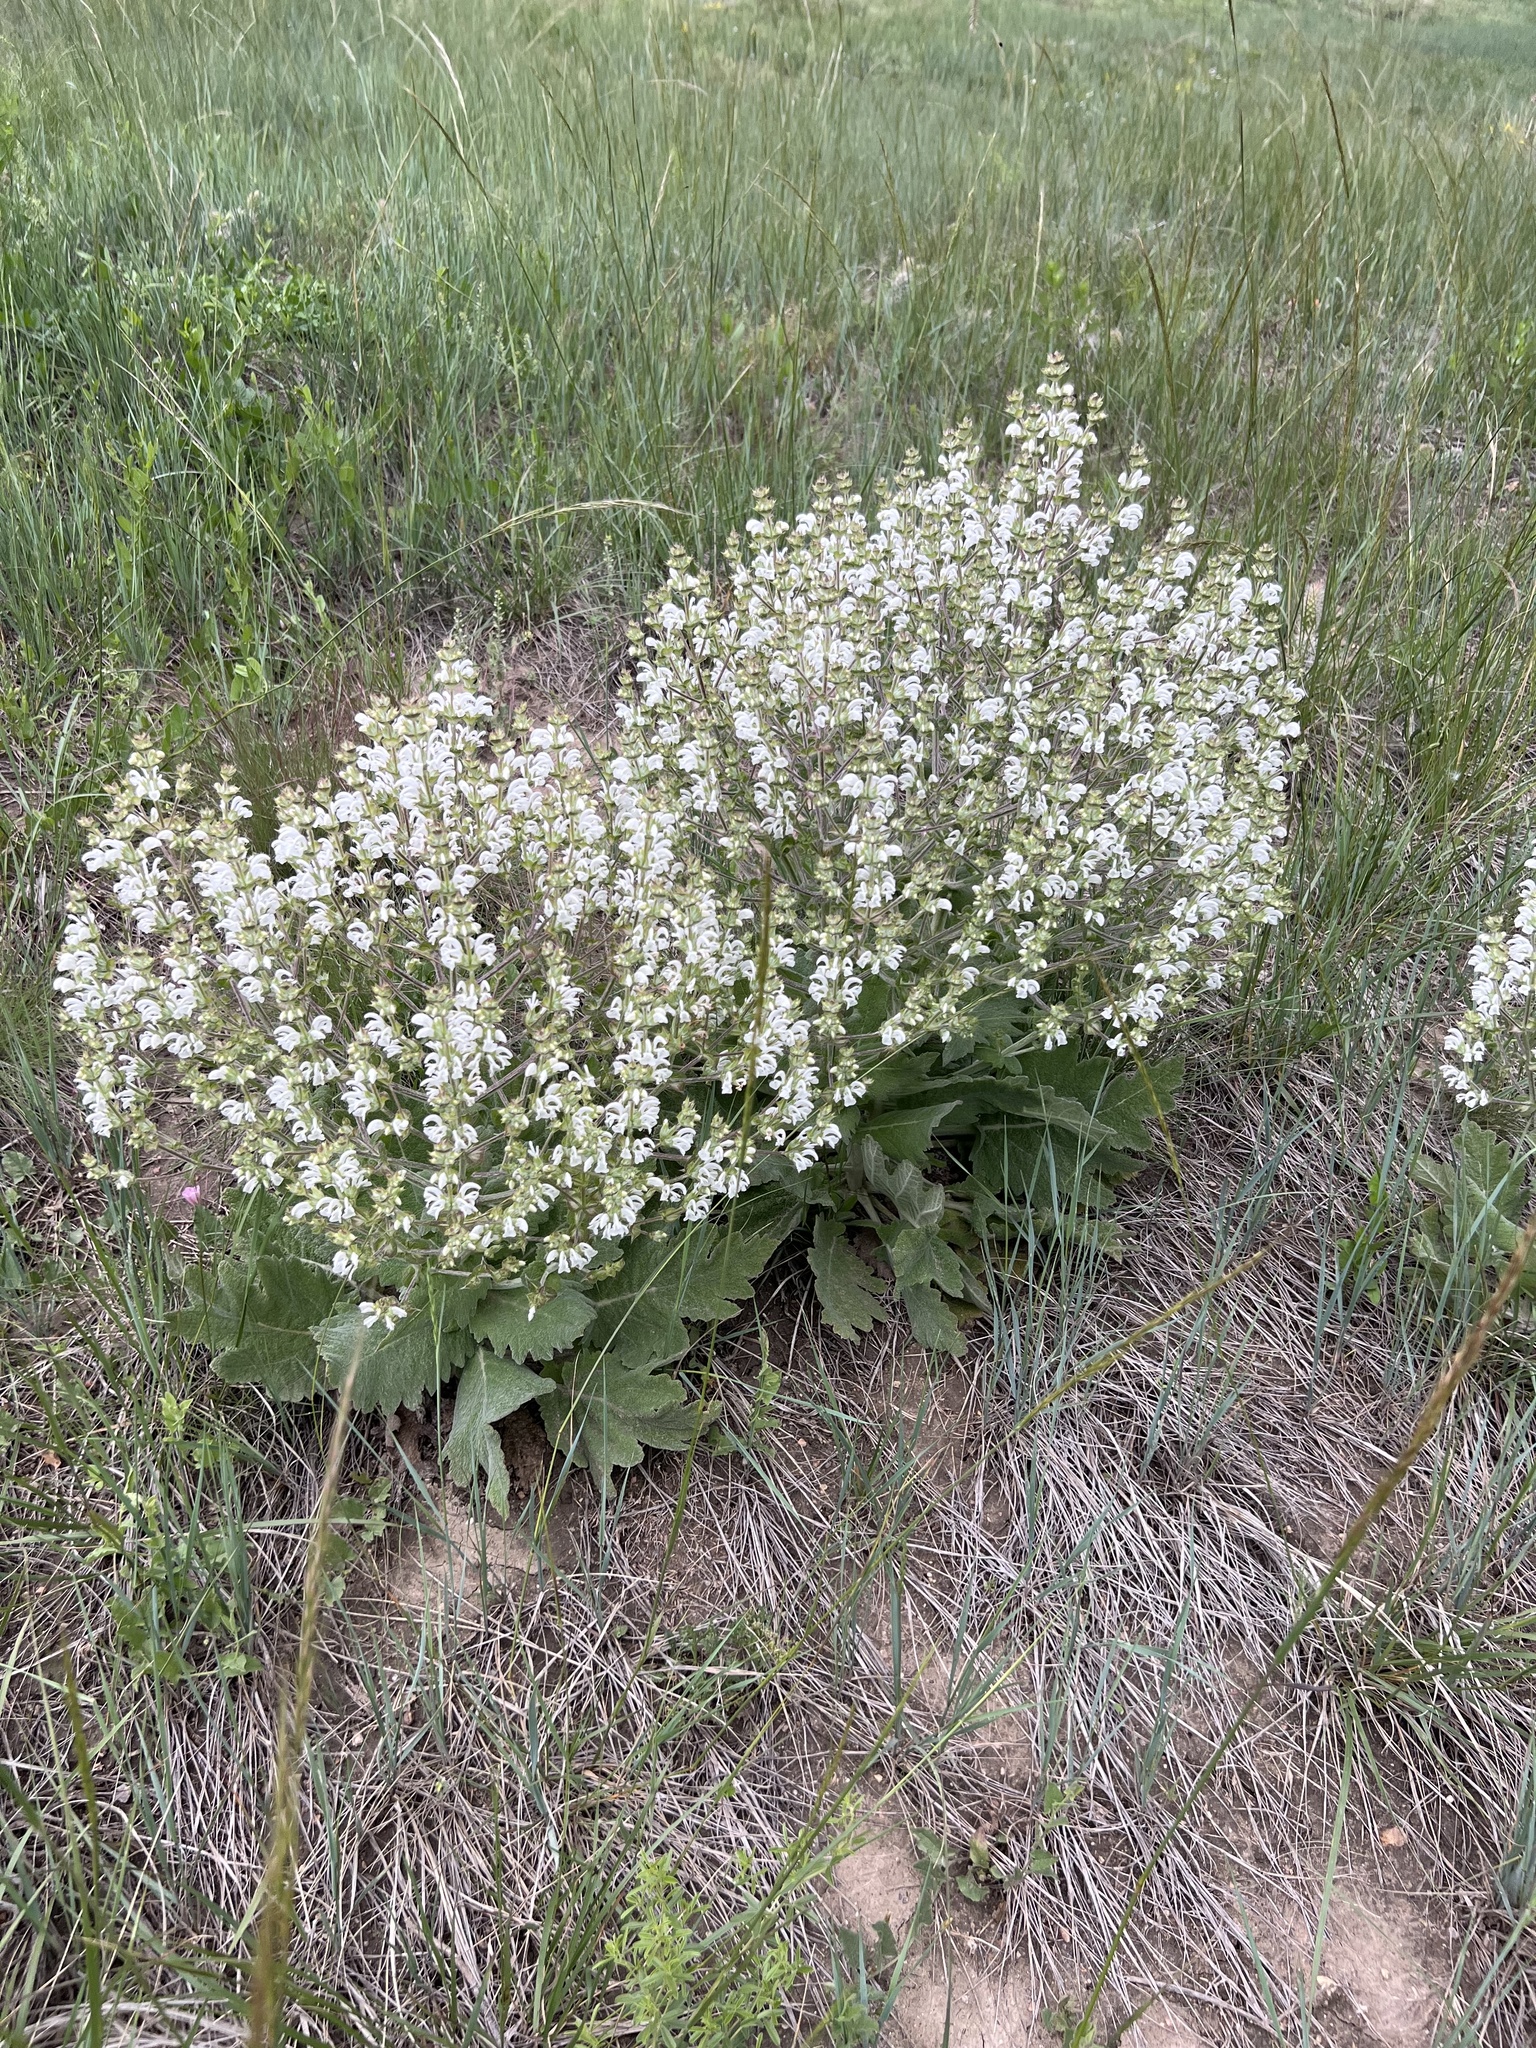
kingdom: Plantae
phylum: Tracheophyta
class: Magnoliopsida
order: Lamiales
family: Lamiaceae
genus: Salvia
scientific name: Salvia aethiopis
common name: Mediterranean sage
